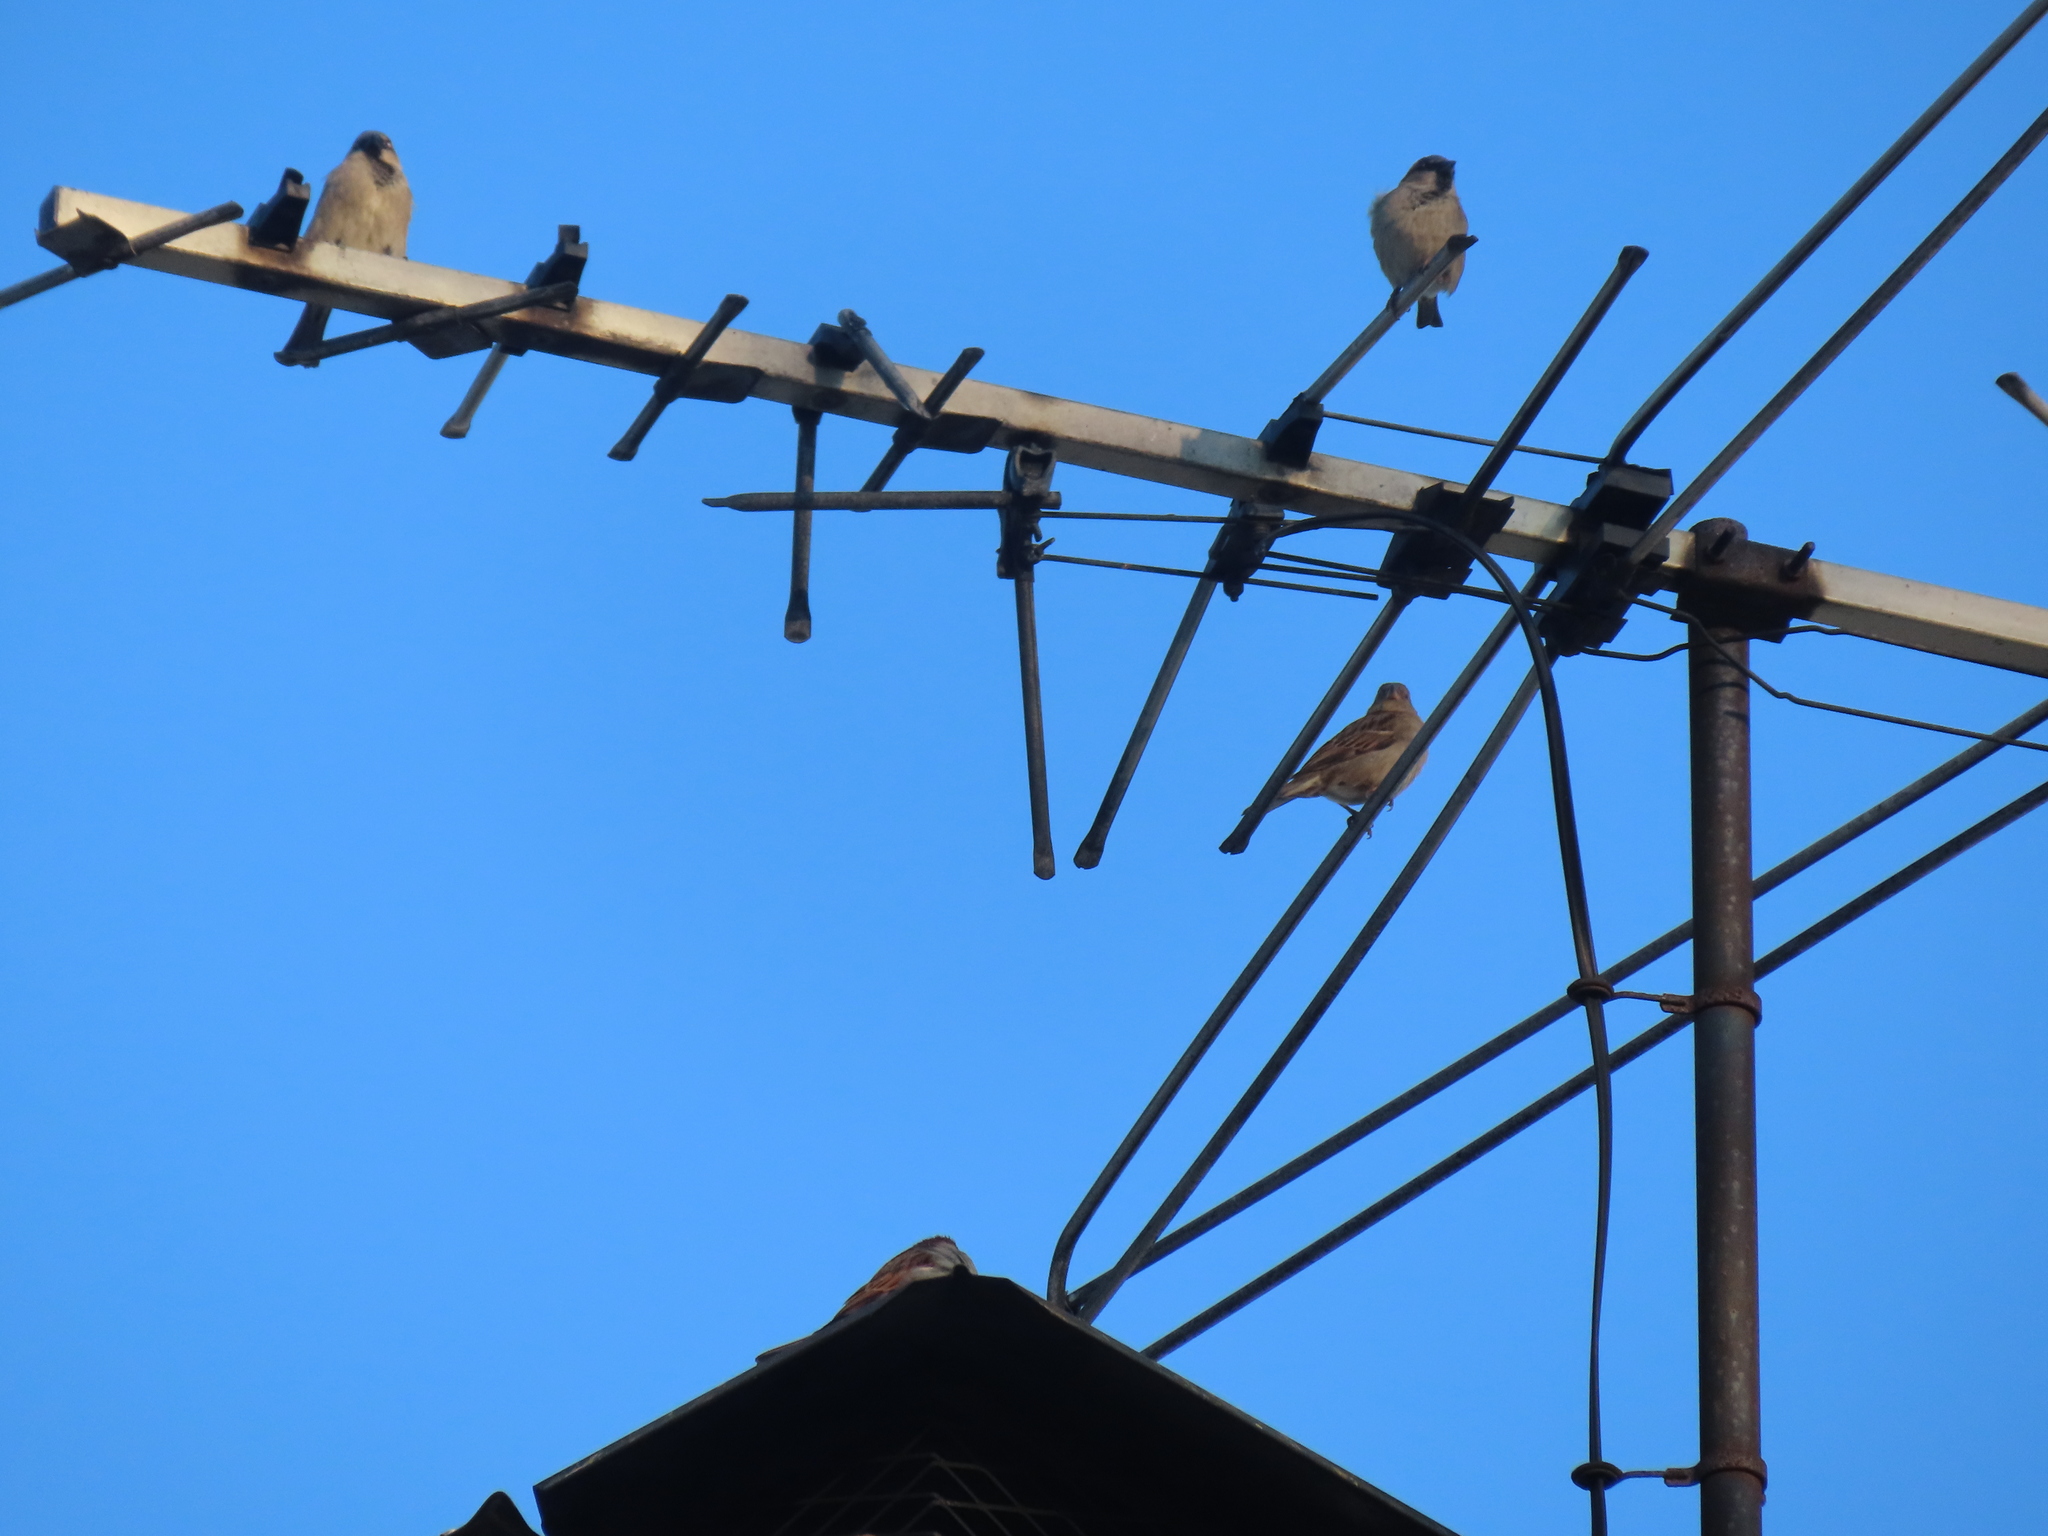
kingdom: Animalia
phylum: Chordata
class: Aves
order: Passeriformes
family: Passeridae
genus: Passer
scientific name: Passer domesticus
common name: House sparrow
